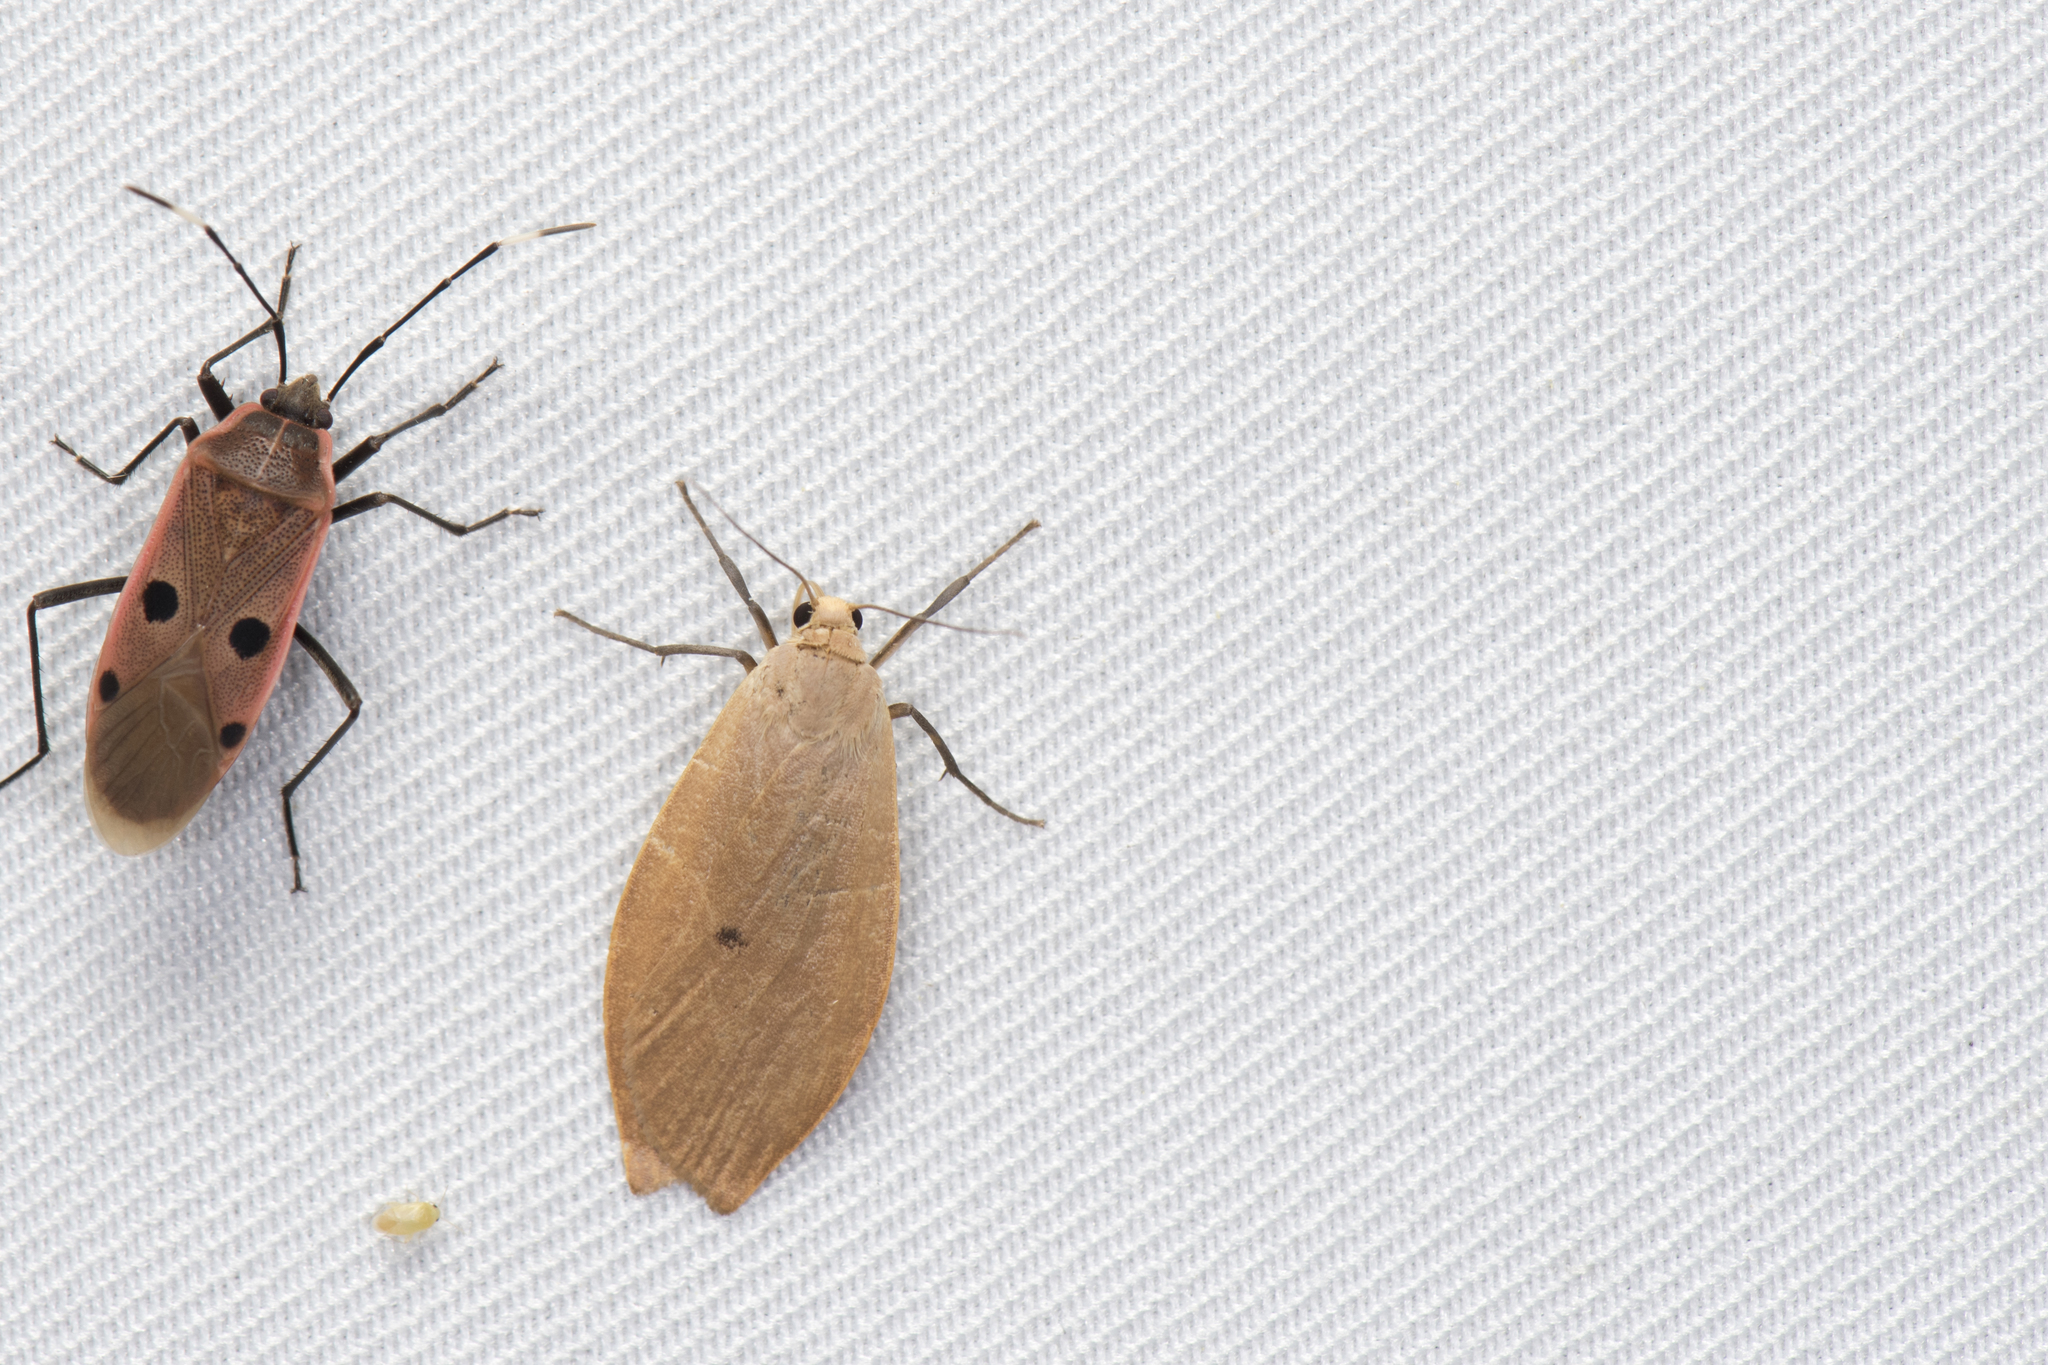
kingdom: Animalia
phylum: Arthropoda
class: Insecta
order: Lepidoptera
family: Erebidae
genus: Manulea
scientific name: Manulea postmaculosa
